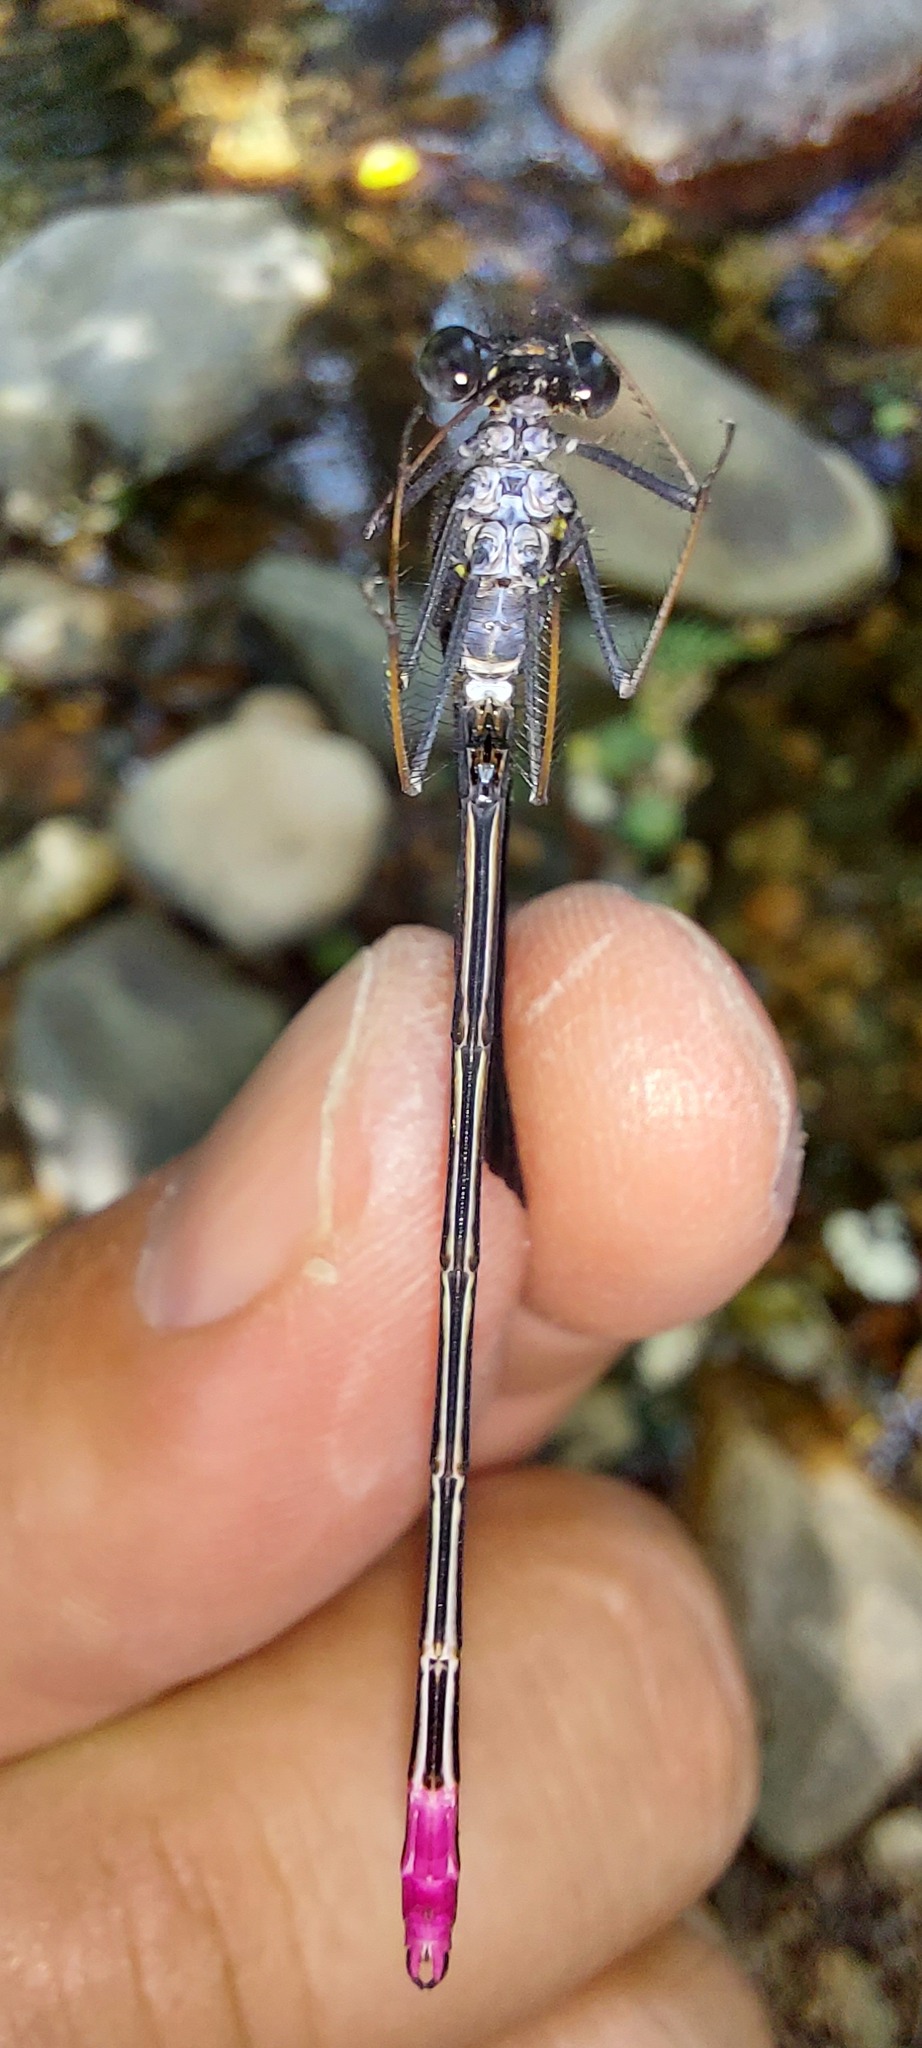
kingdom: Animalia
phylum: Arthropoda
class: Insecta
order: Odonata
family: Calopterygidae
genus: Calopteryx
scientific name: Calopteryx haemorrhoidalis
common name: Copper demoiselle
